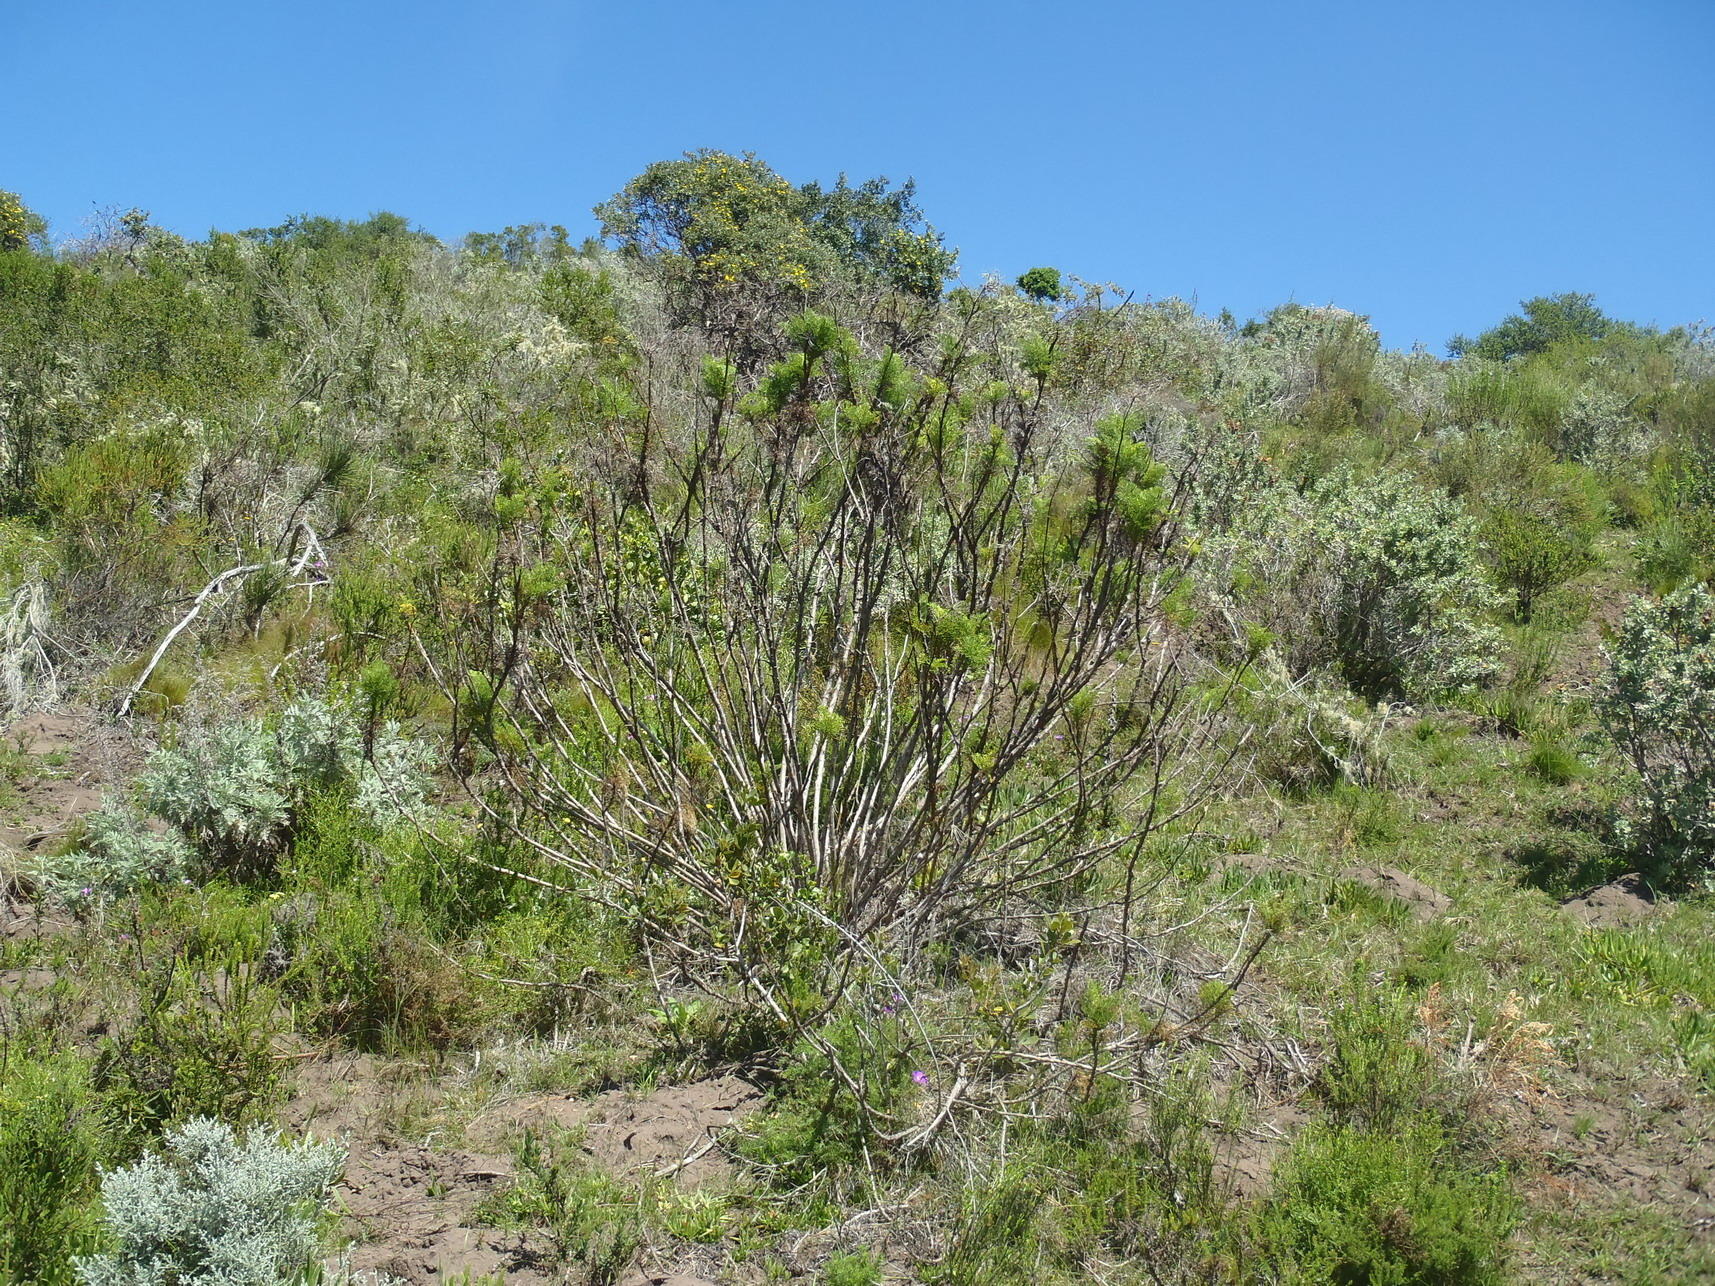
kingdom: Plantae
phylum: Tracheophyta
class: Magnoliopsida
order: Apiales
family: Apiaceae
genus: Notobubon
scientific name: Notobubon ferulaceum
